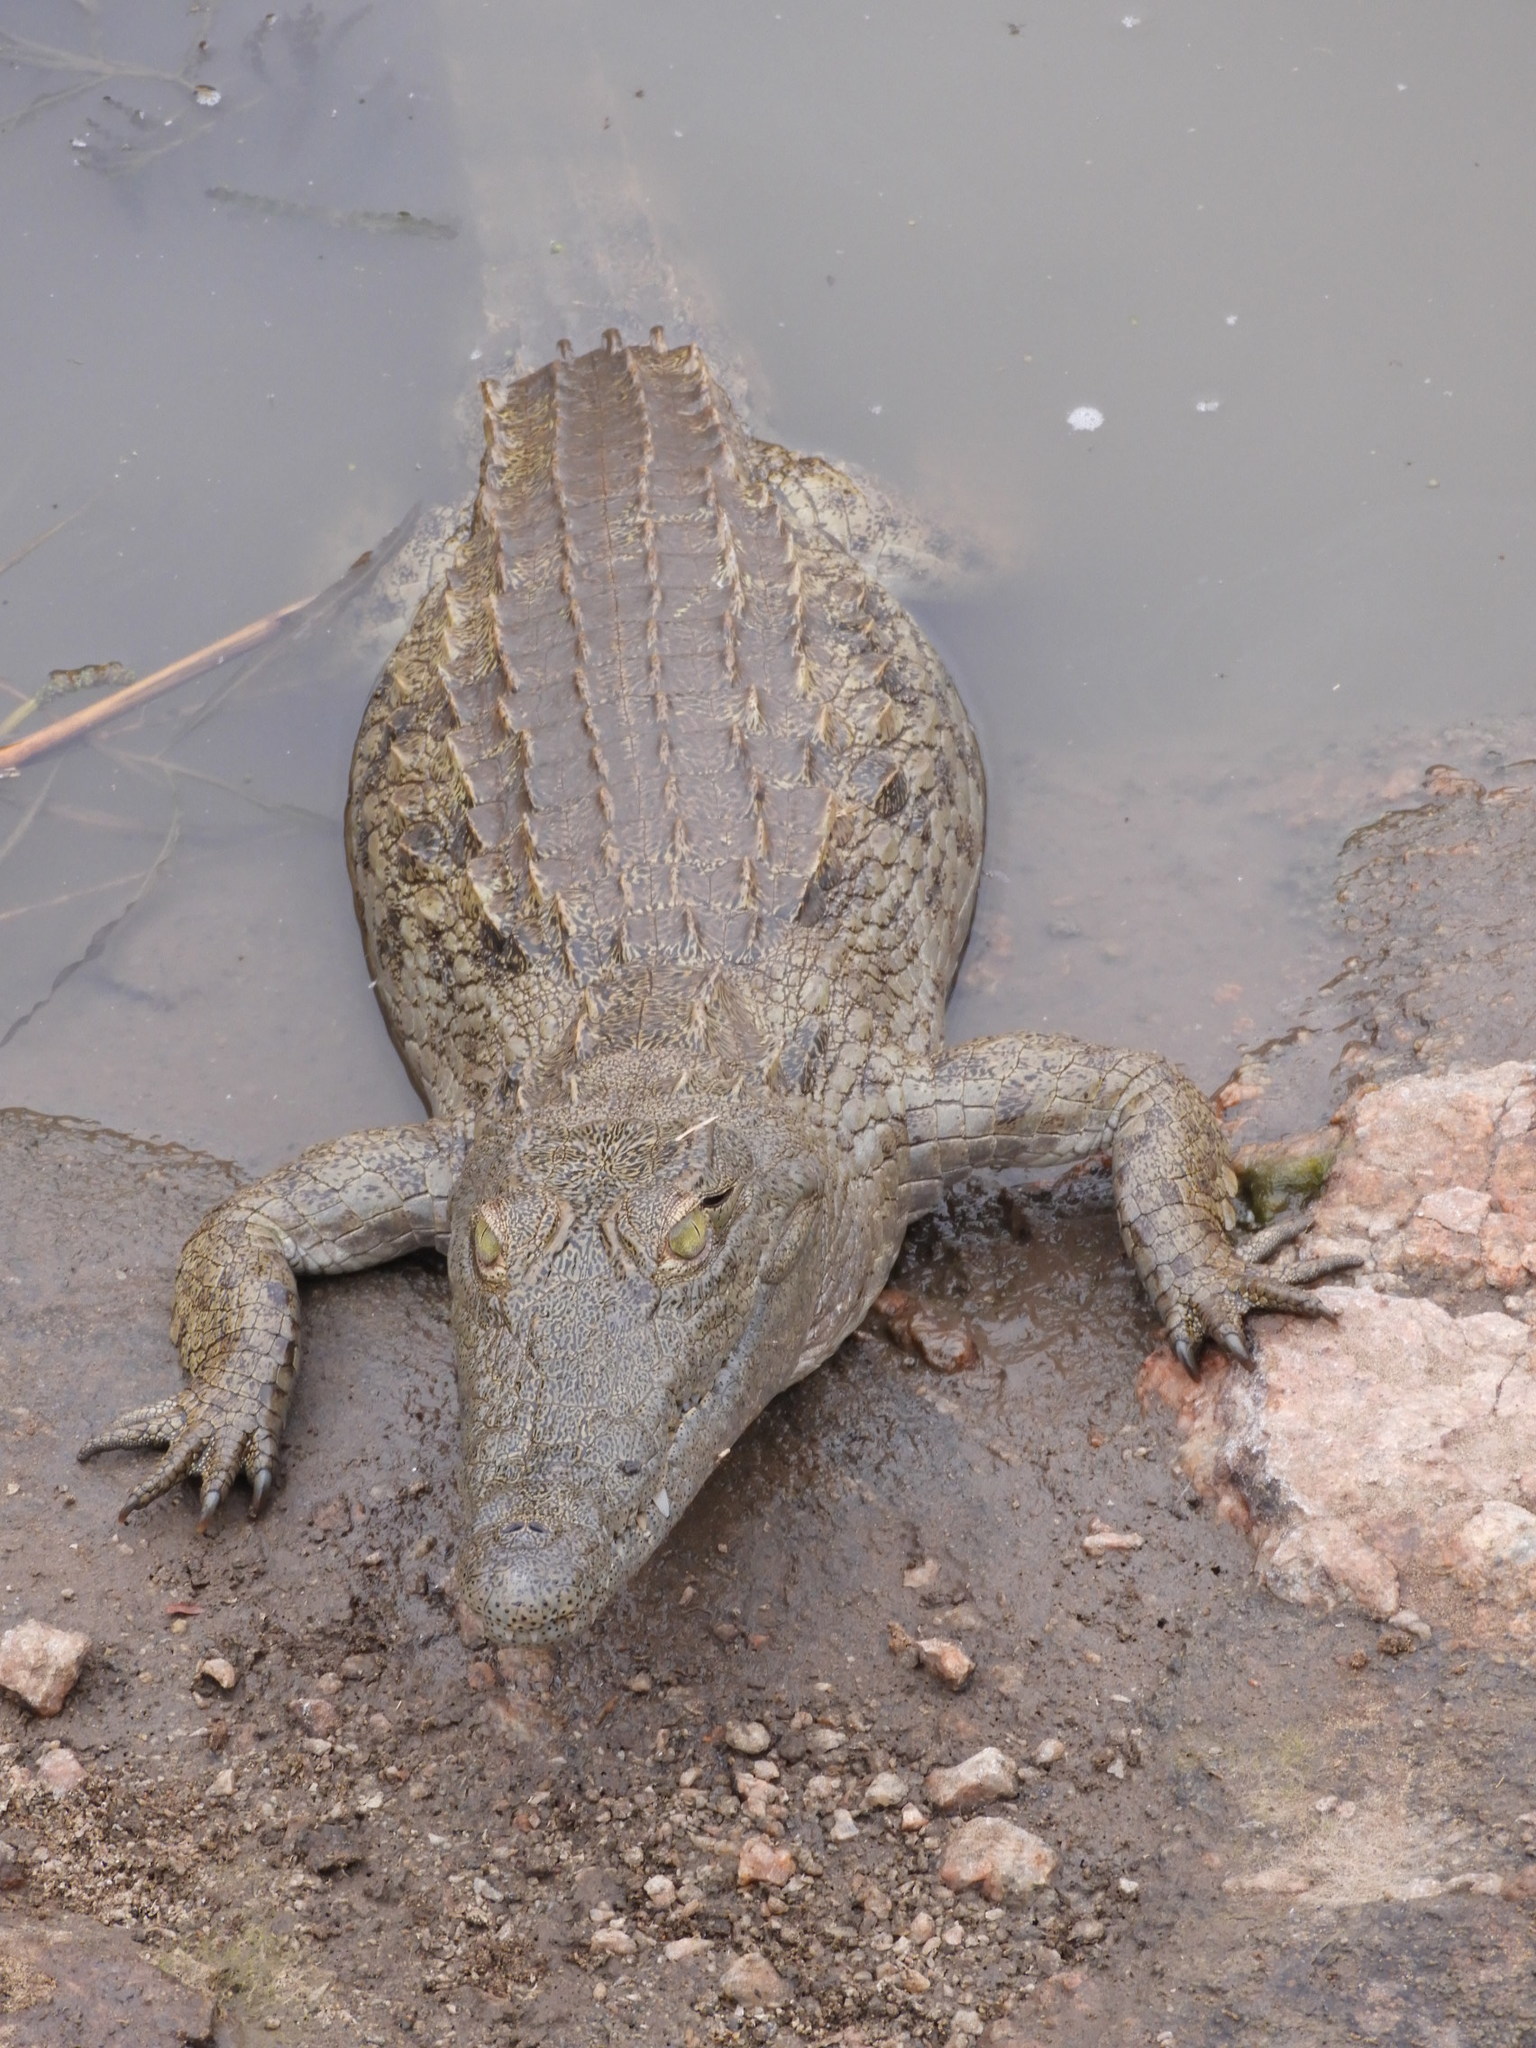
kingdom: Animalia
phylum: Chordata
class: Crocodylia
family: Crocodylidae
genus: Crocodylus
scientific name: Crocodylus niloticus
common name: Nile crocodile
